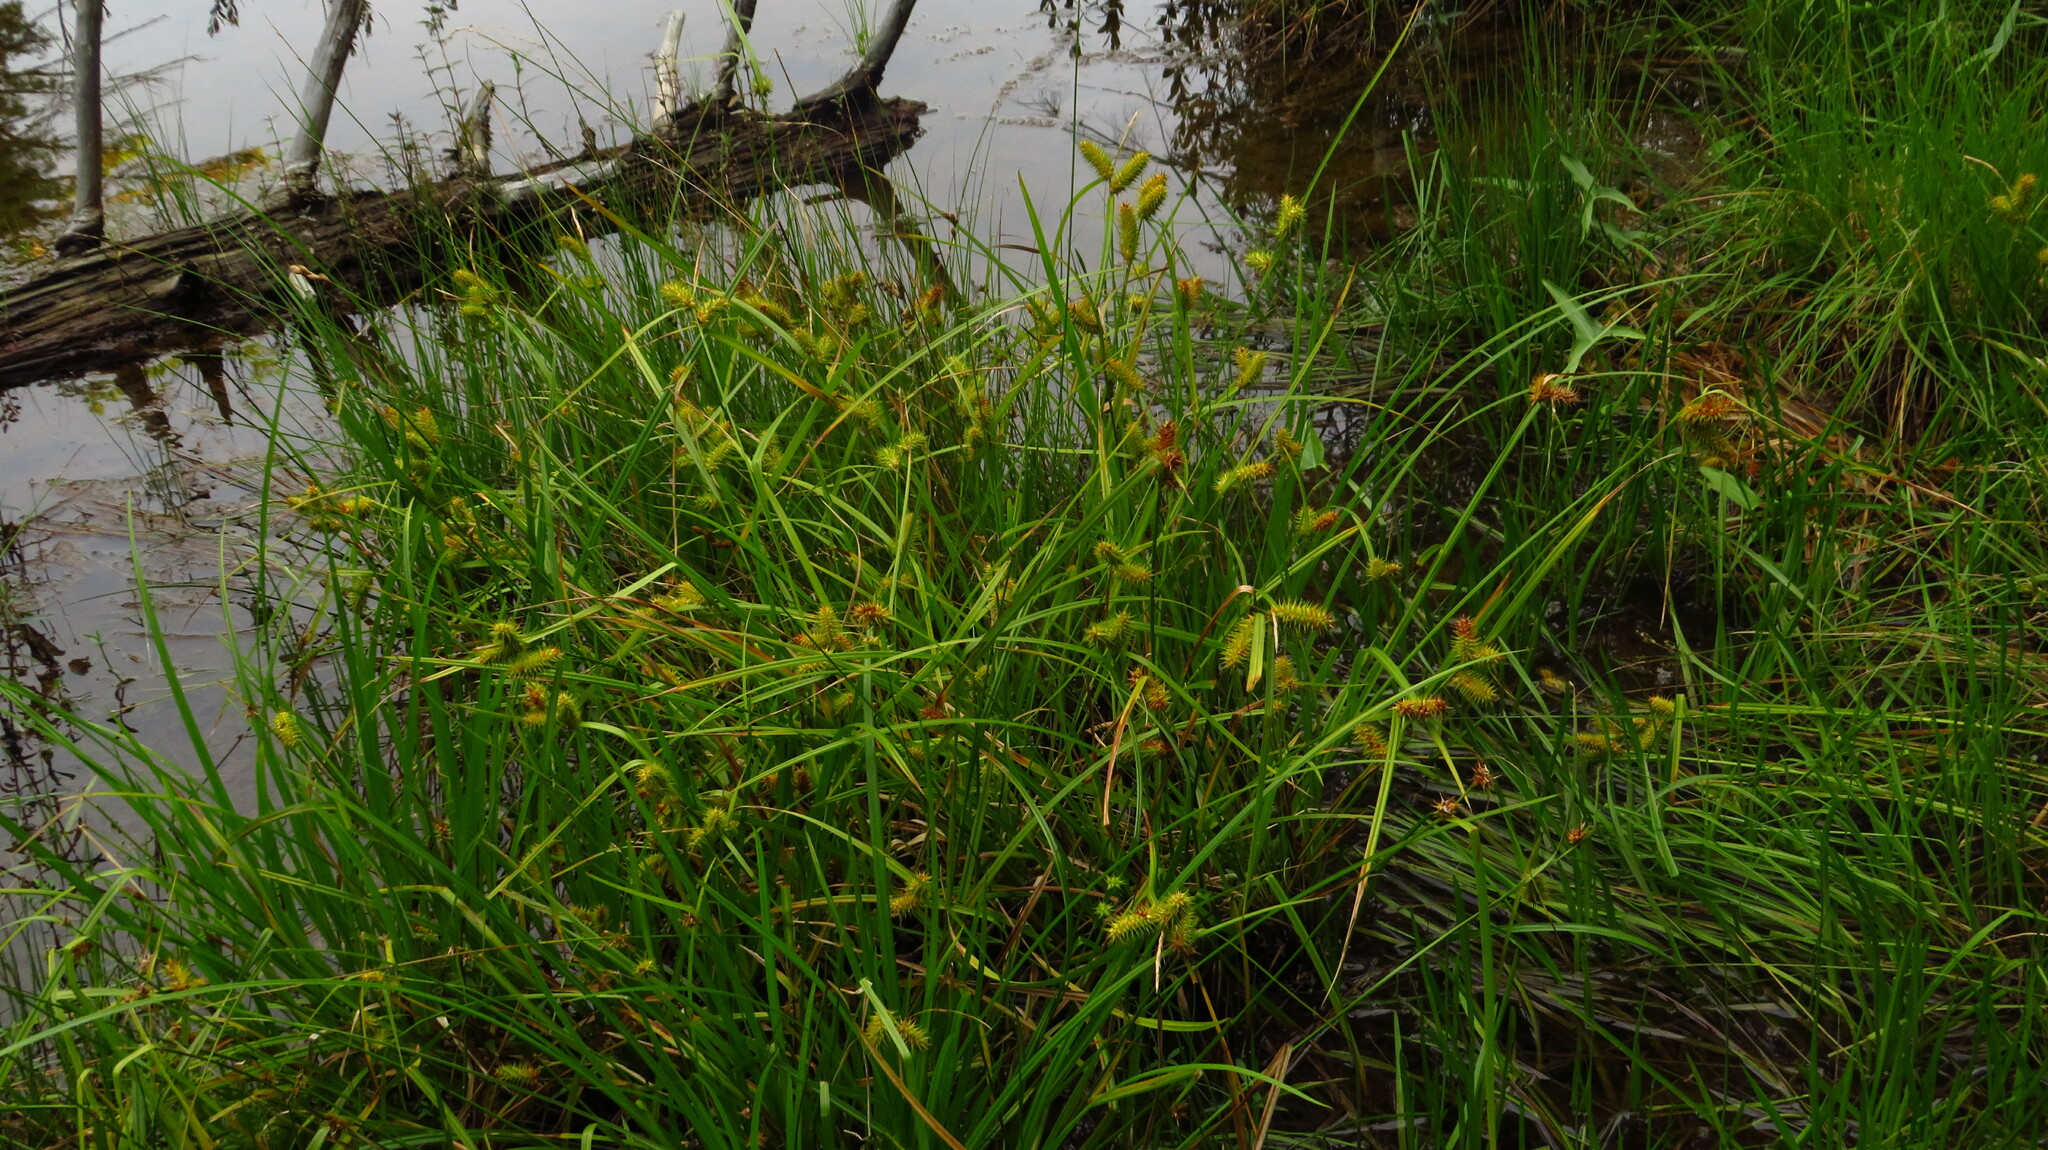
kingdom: Plantae
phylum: Tracheophyta
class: Liliopsida
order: Poales
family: Cyperaceae
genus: Carex
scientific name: Carex lurida
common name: Sallow sedge
